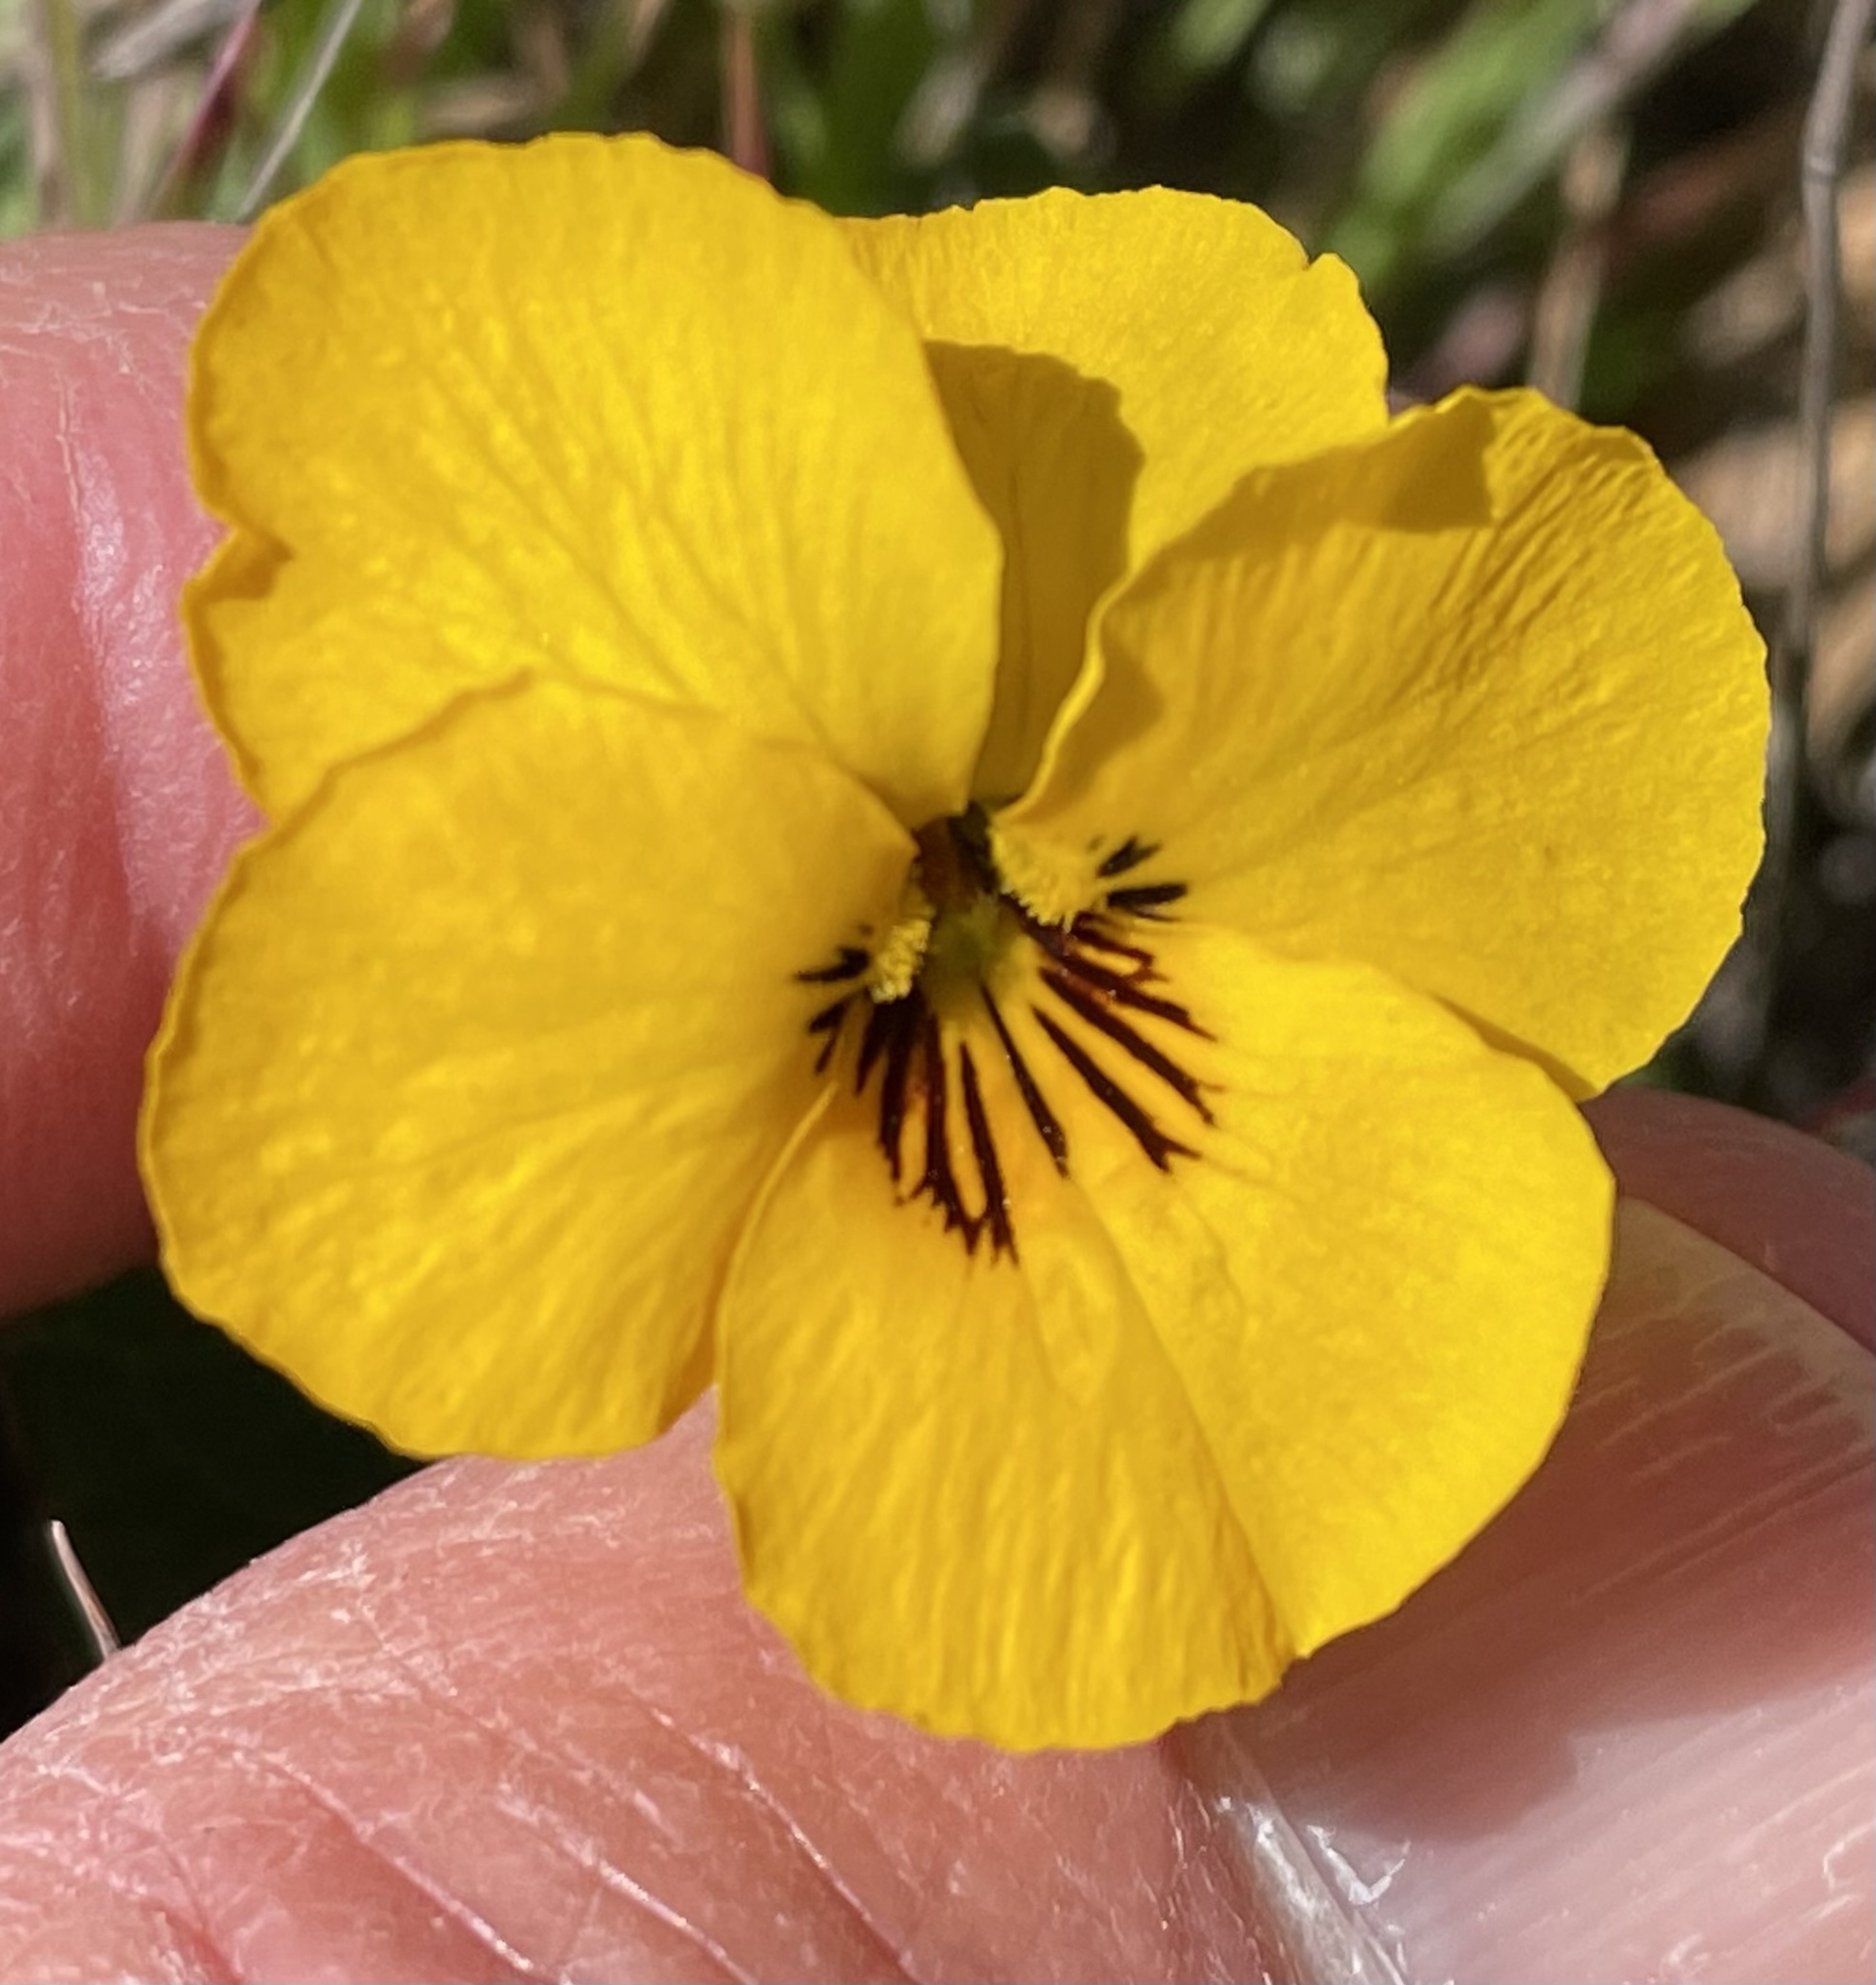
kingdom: Plantae
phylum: Tracheophyta
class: Magnoliopsida
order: Malpighiales
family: Violaceae
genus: Viola
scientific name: Viola pedunculata
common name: California golden violet
